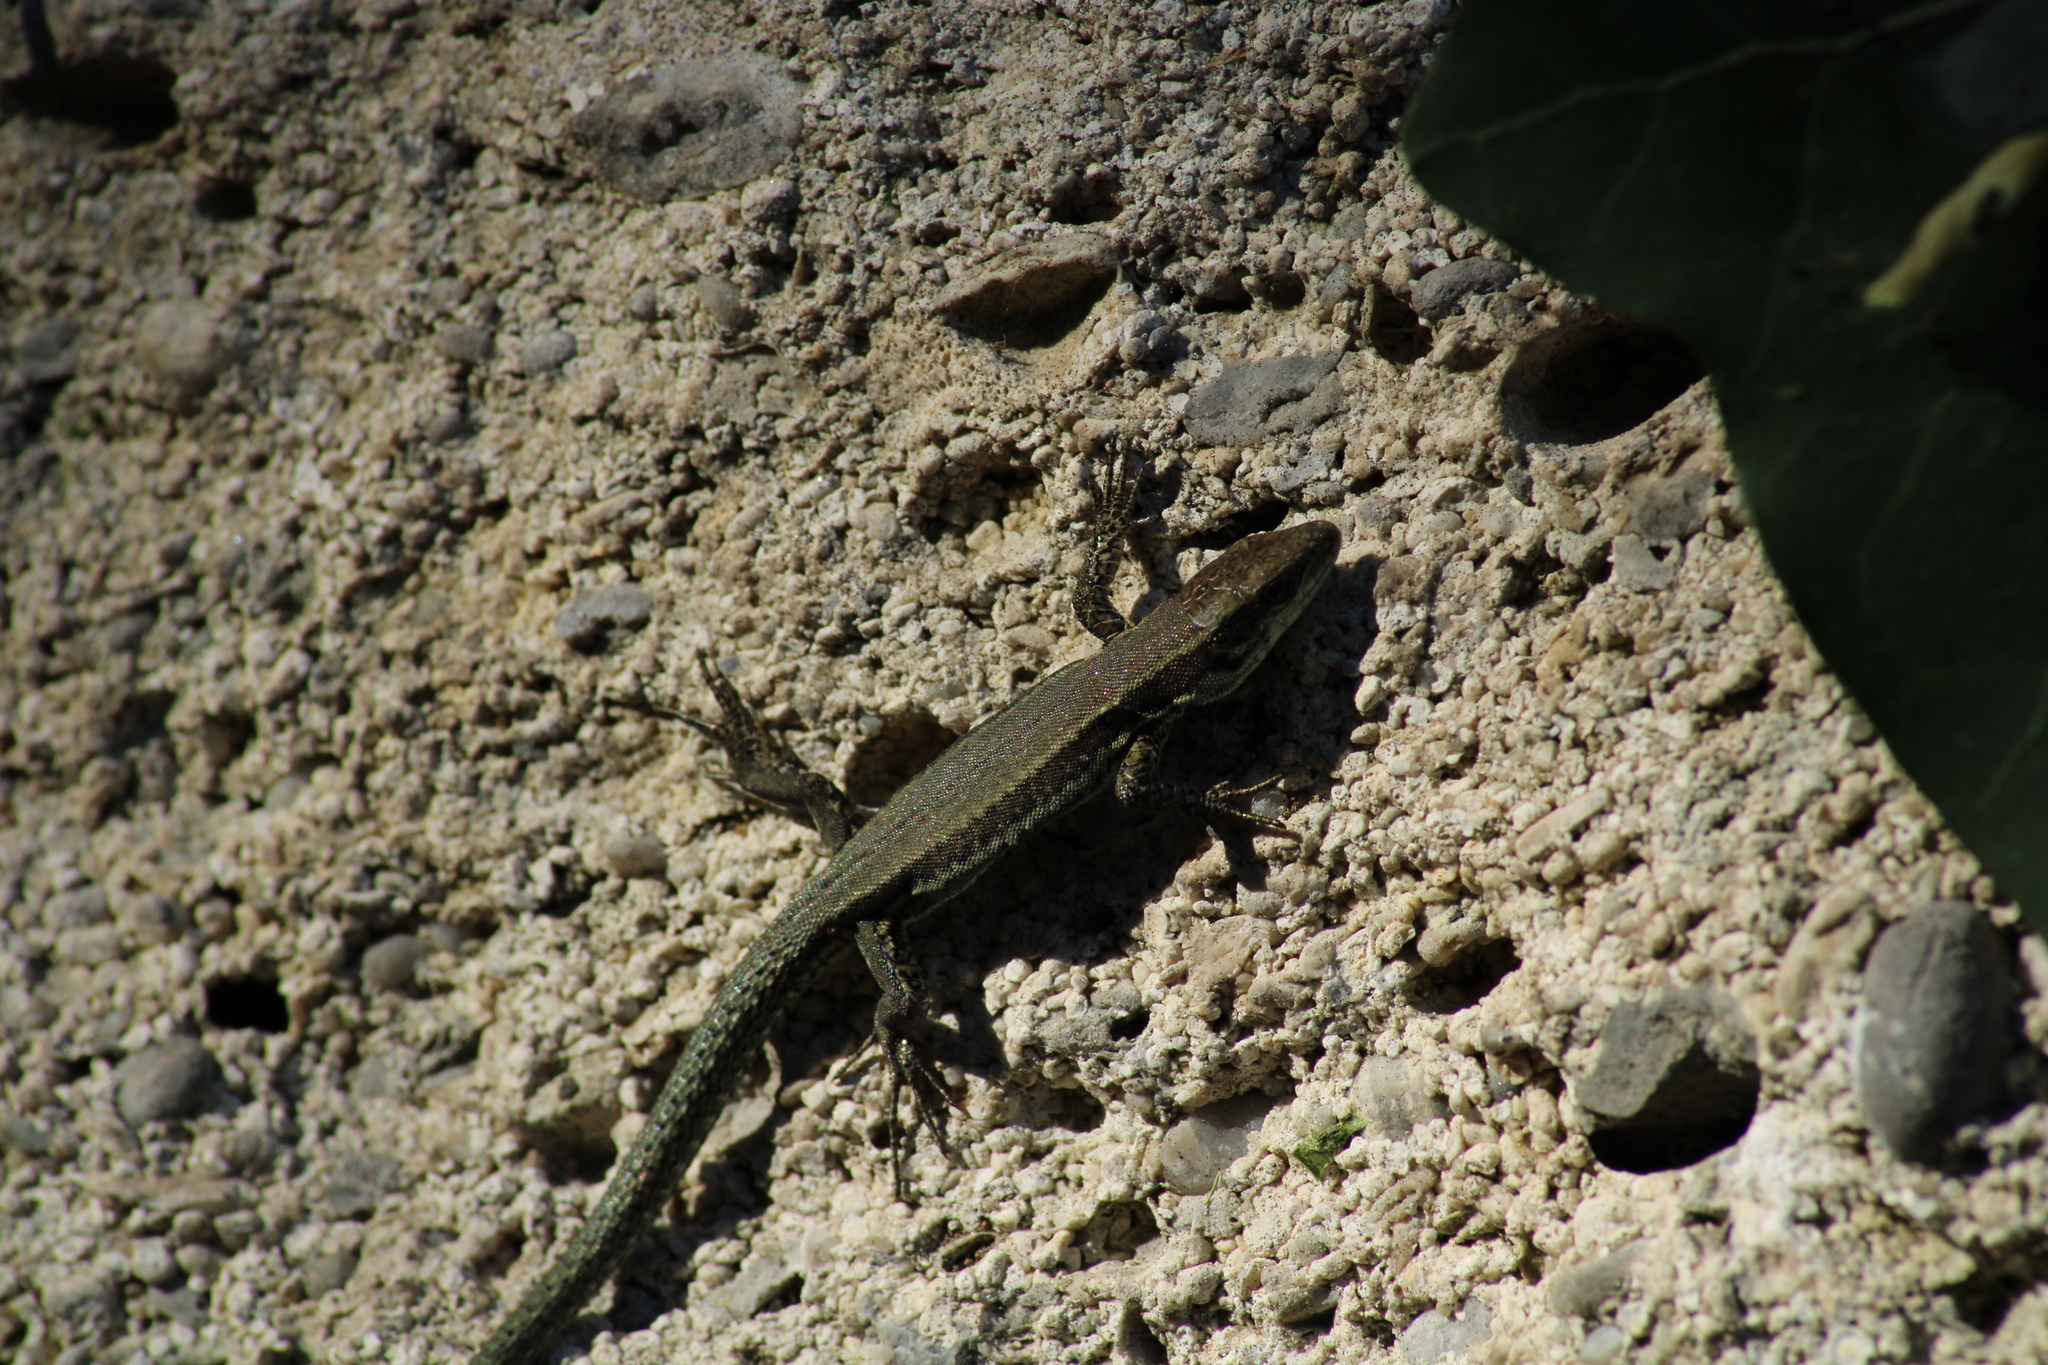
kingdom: Animalia
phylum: Chordata
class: Squamata
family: Lacertidae
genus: Podarcis
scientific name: Podarcis muralis
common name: Common wall lizard
